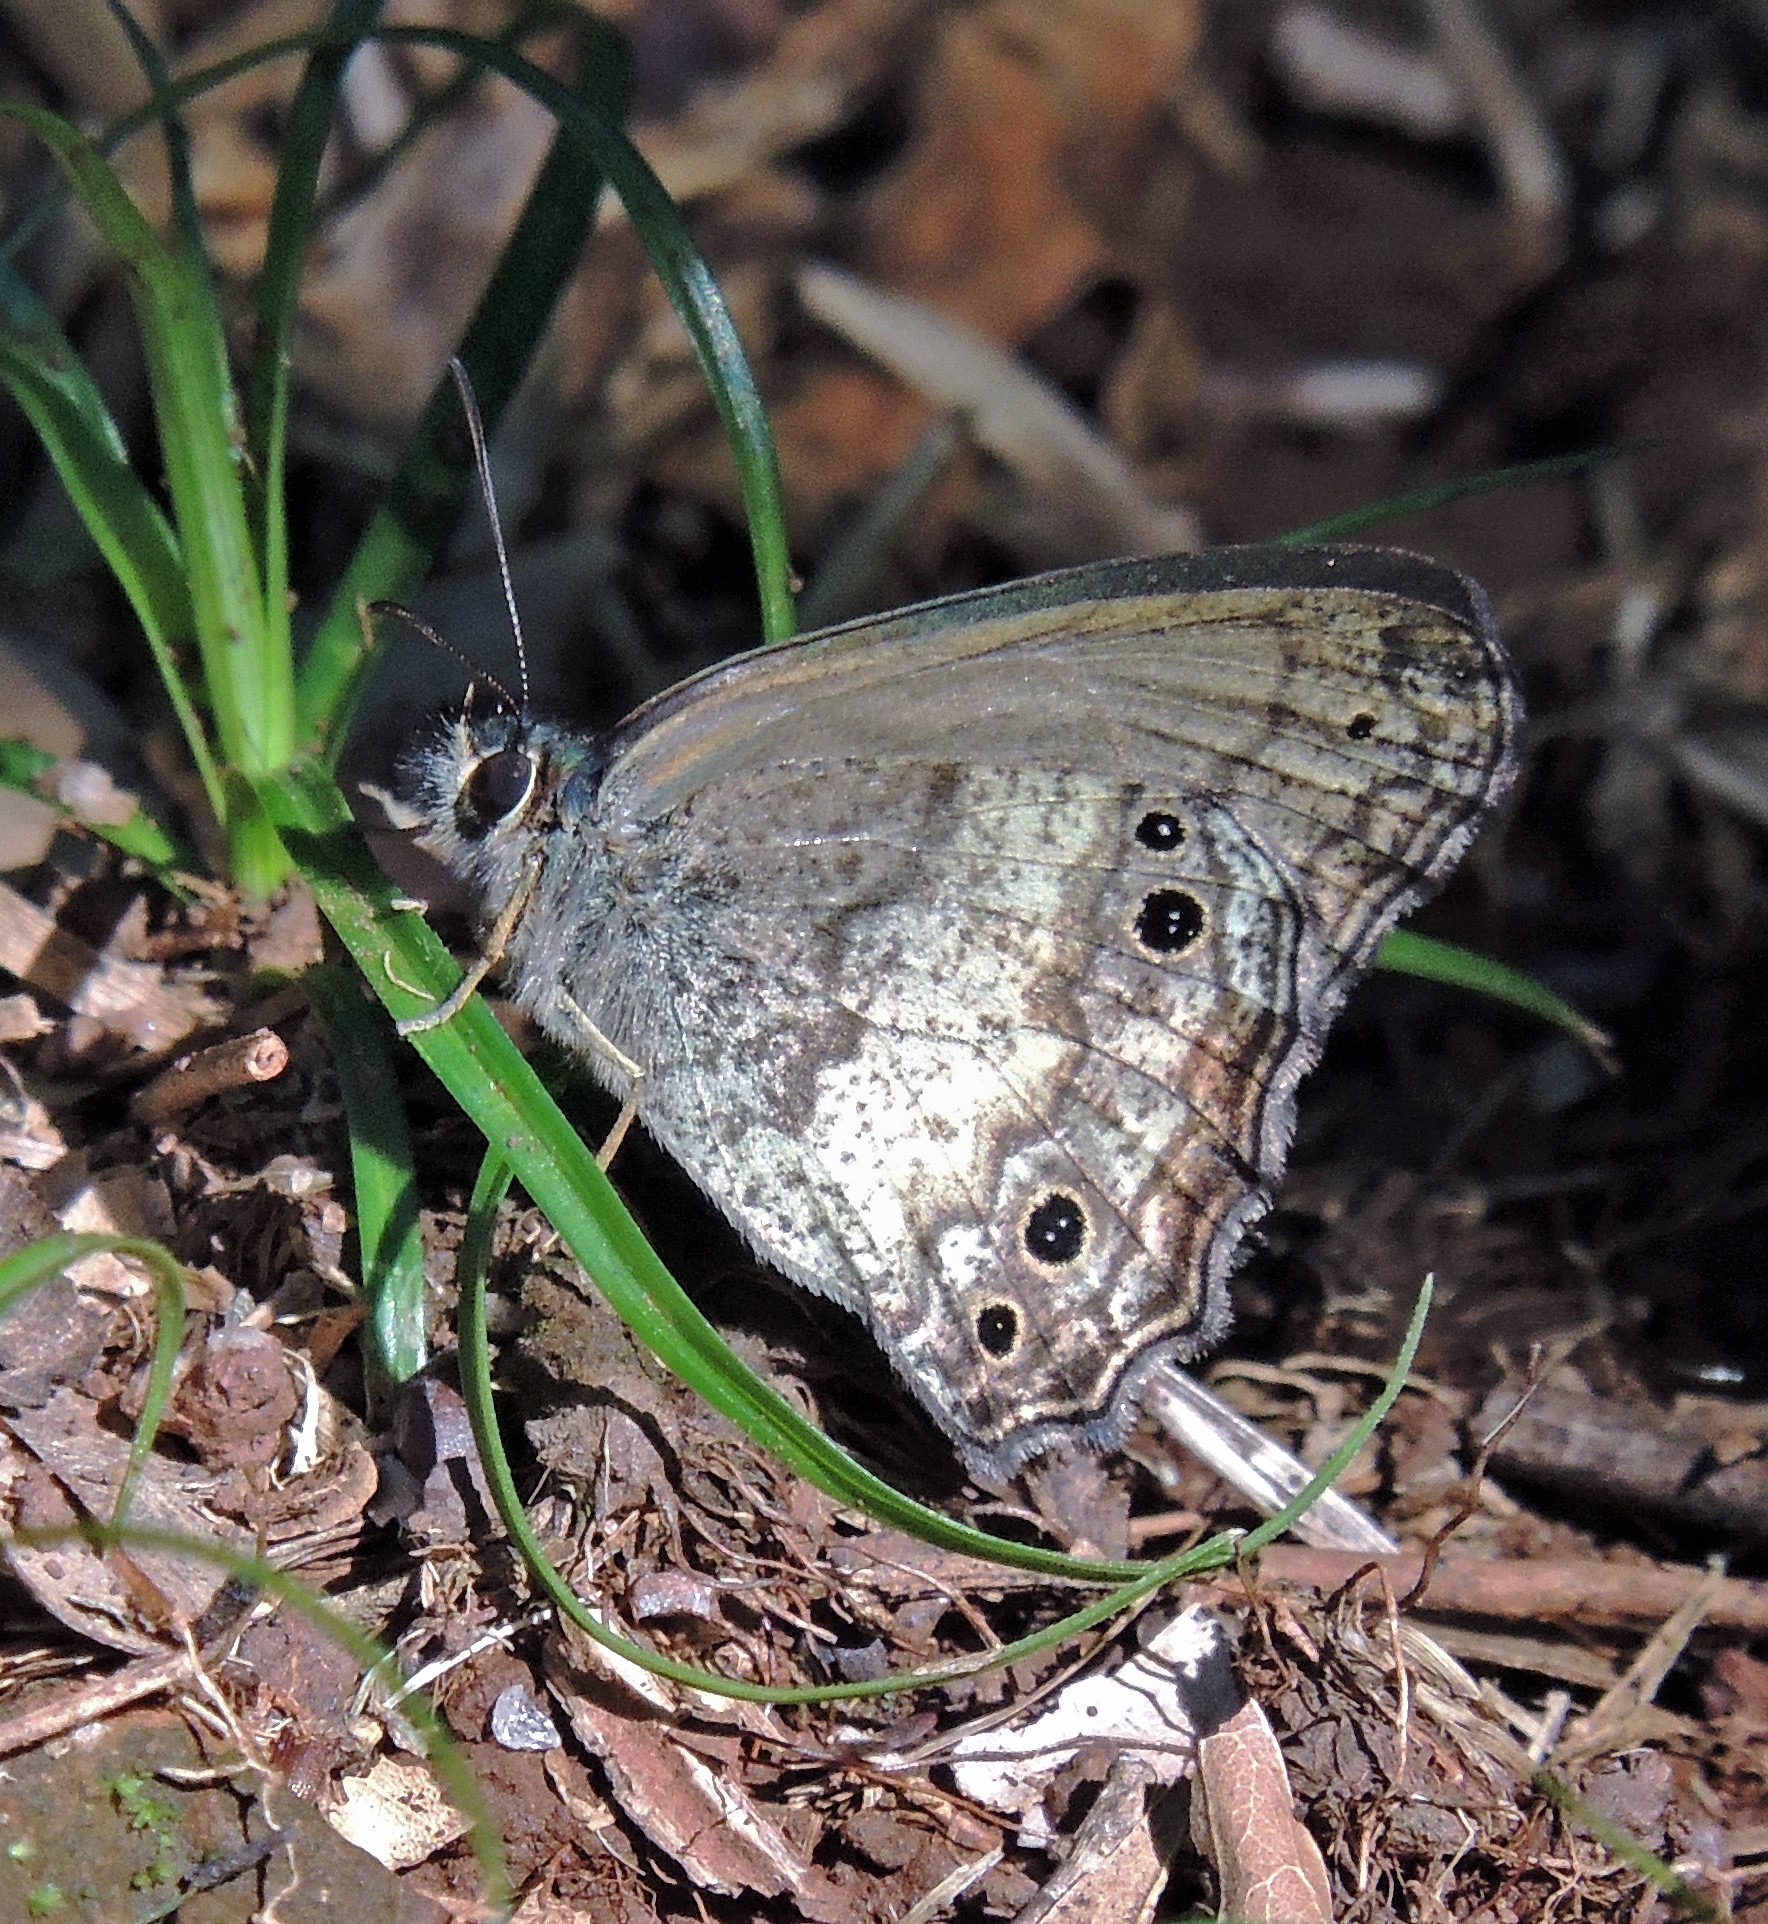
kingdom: Animalia
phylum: Arthropoda
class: Insecta
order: Lepidoptera
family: Nymphalidae
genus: Carminda
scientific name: Carminda griseldis
